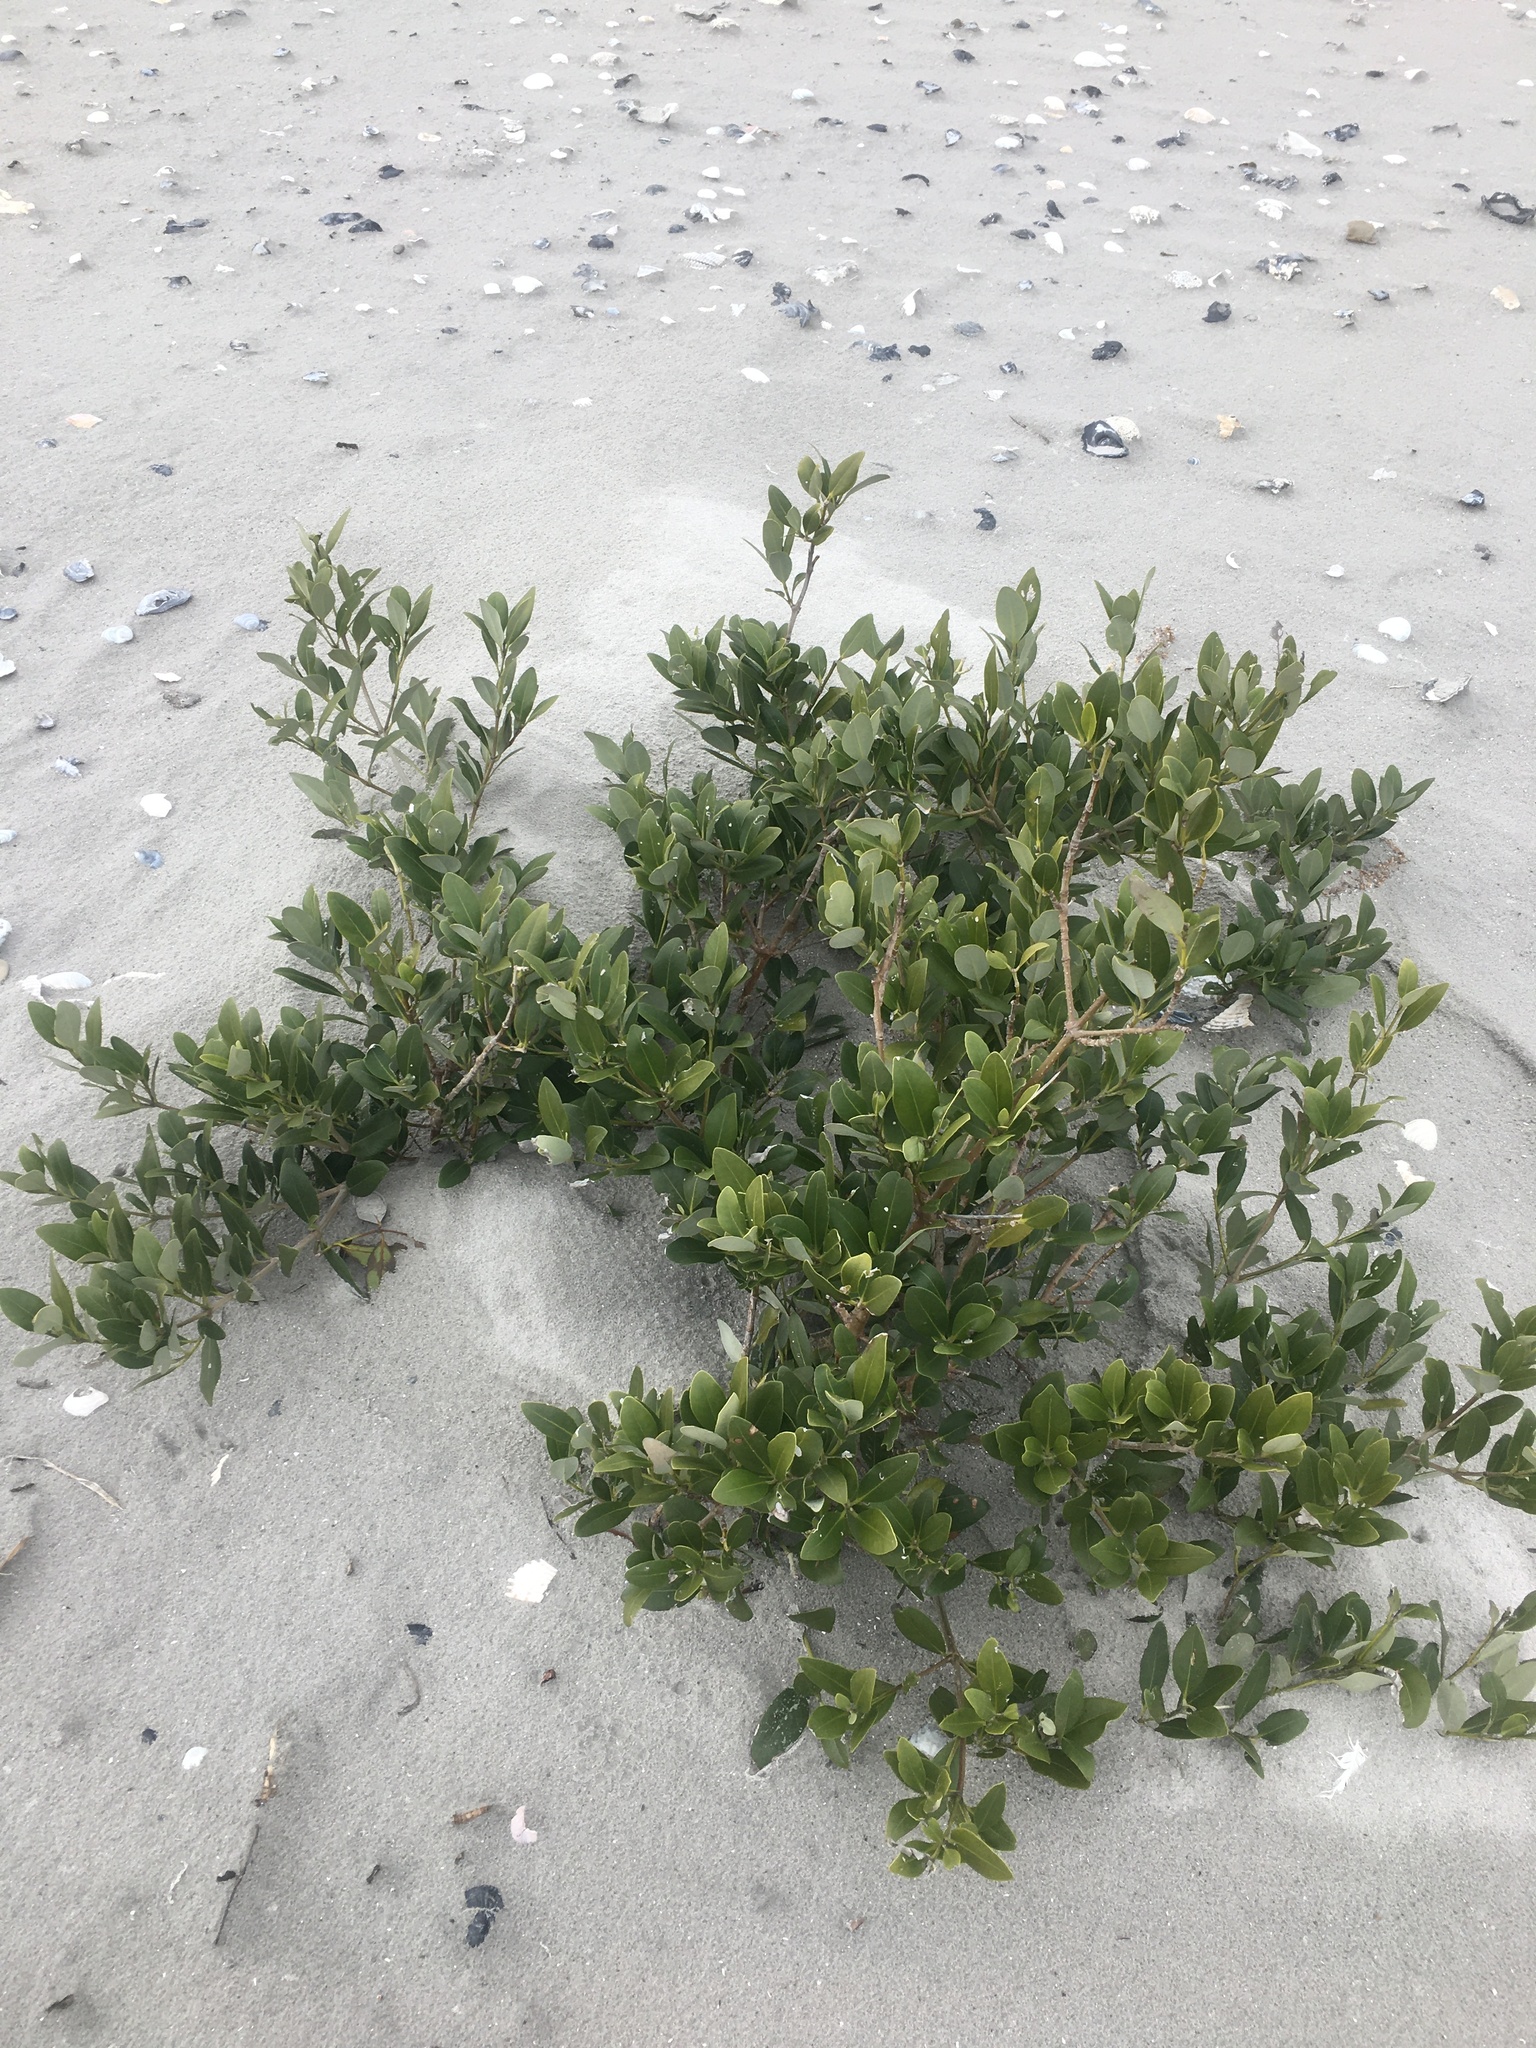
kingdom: Plantae
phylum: Tracheophyta
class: Magnoliopsida
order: Lamiales
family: Acanthaceae
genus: Avicennia
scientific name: Avicennia germinans
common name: Black mangrove
